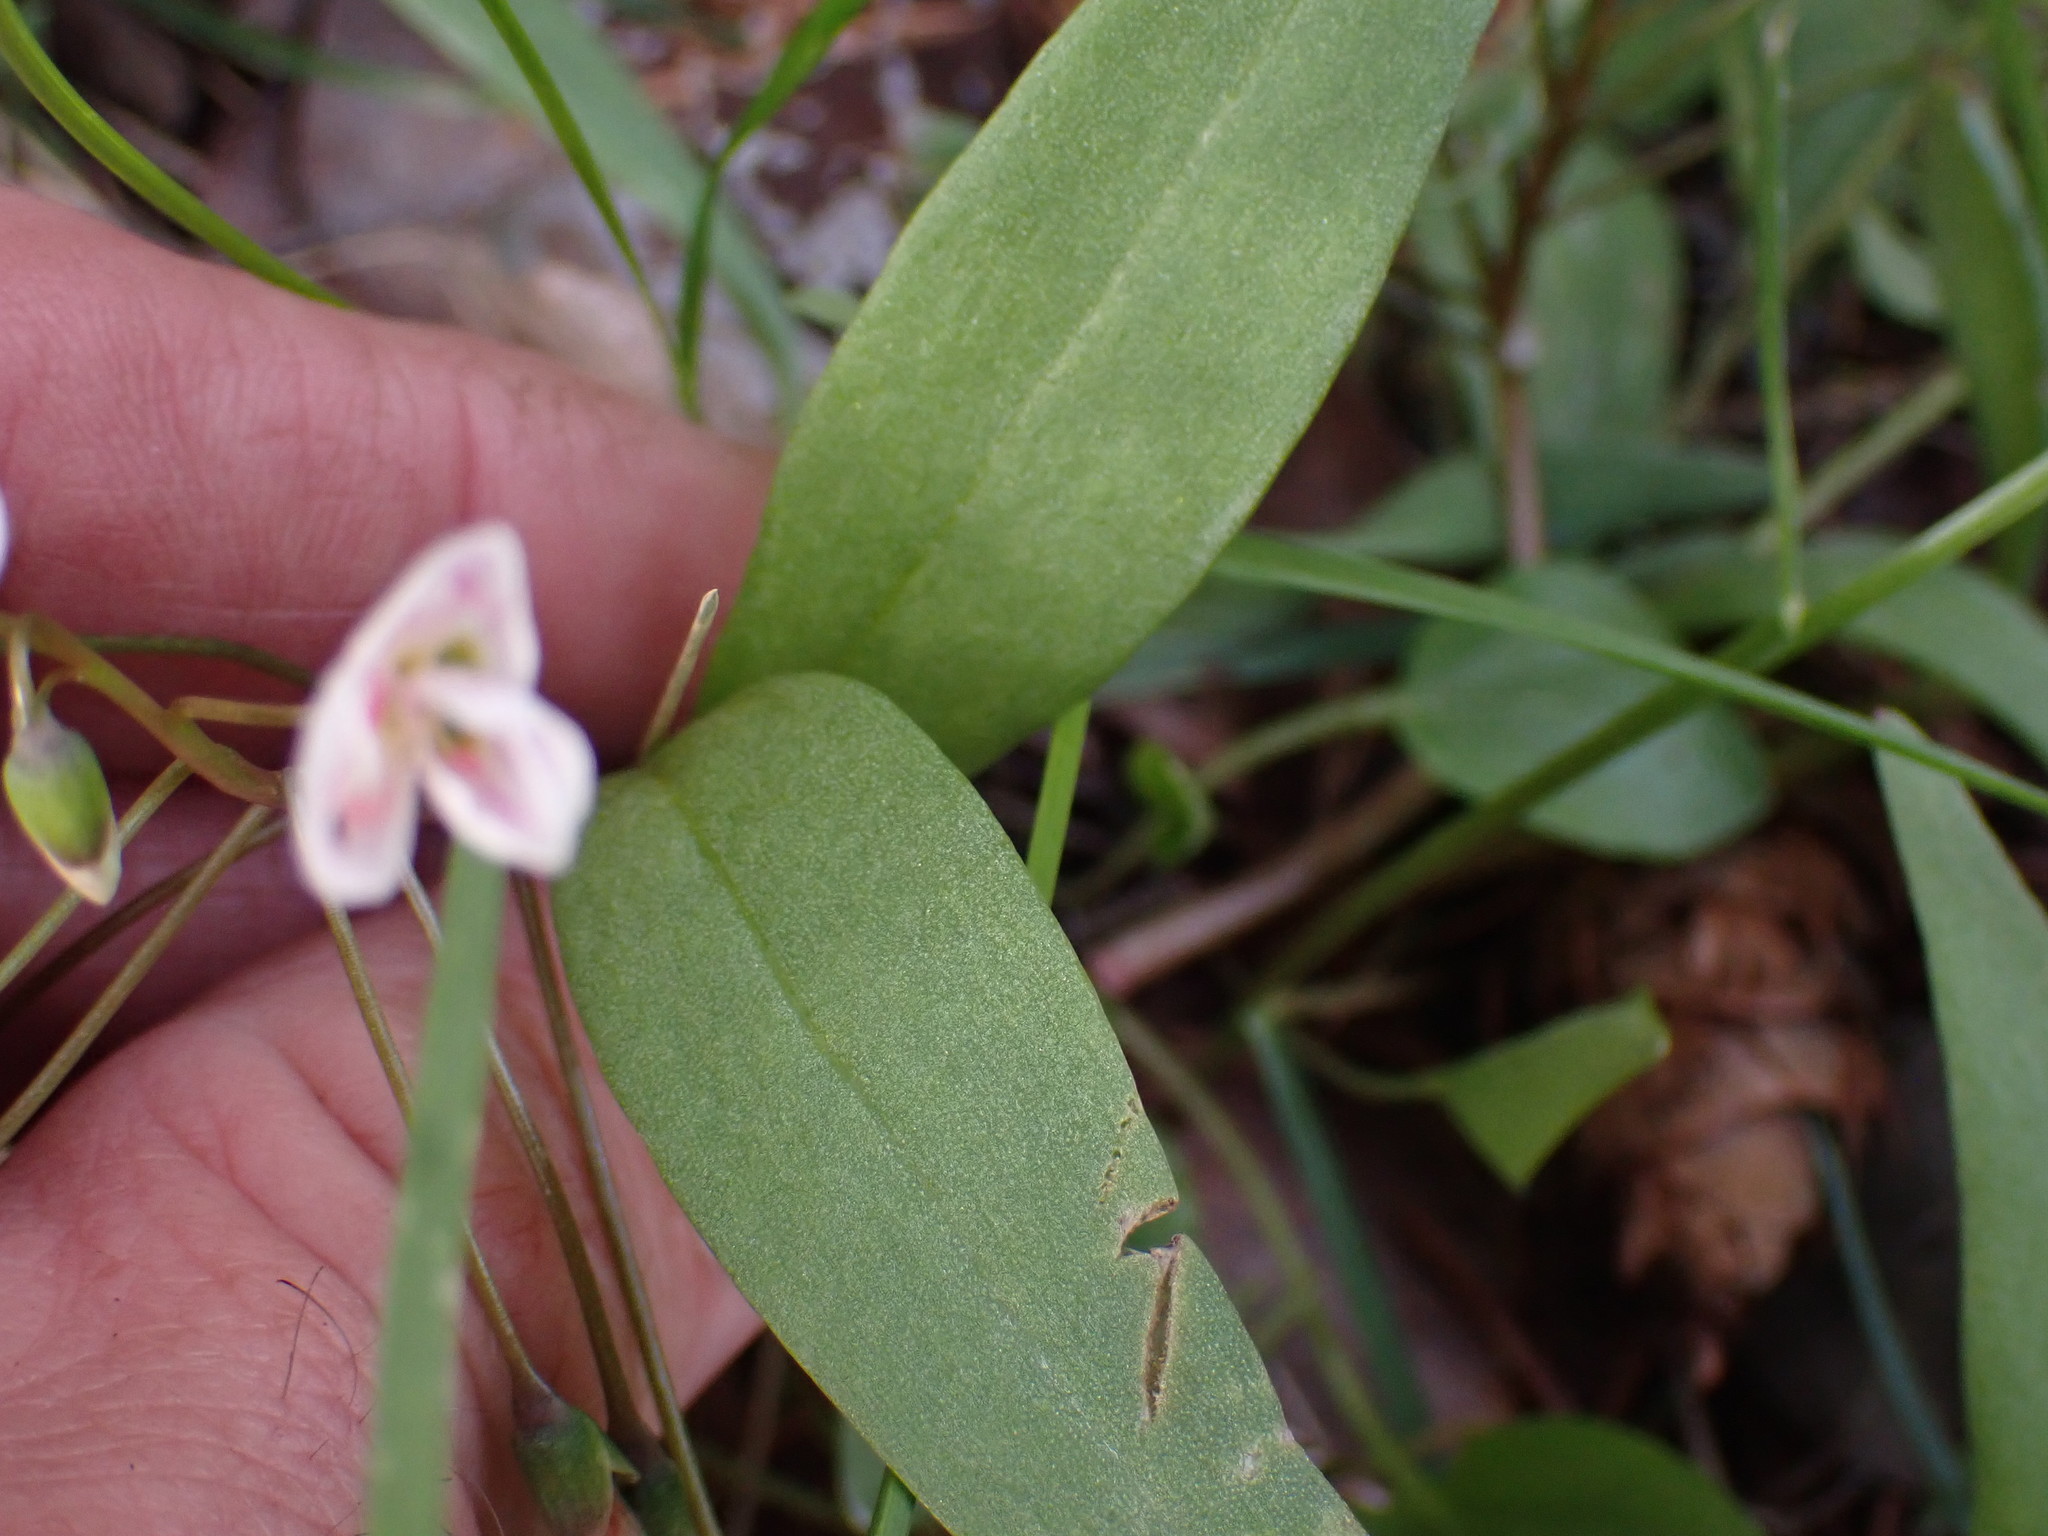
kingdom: Plantae
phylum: Tracheophyta
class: Magnoliopsida
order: Caryophyllales
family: Montiaceae
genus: Claytonia
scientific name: Claytonia lanceolata
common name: Western spring-beauty
